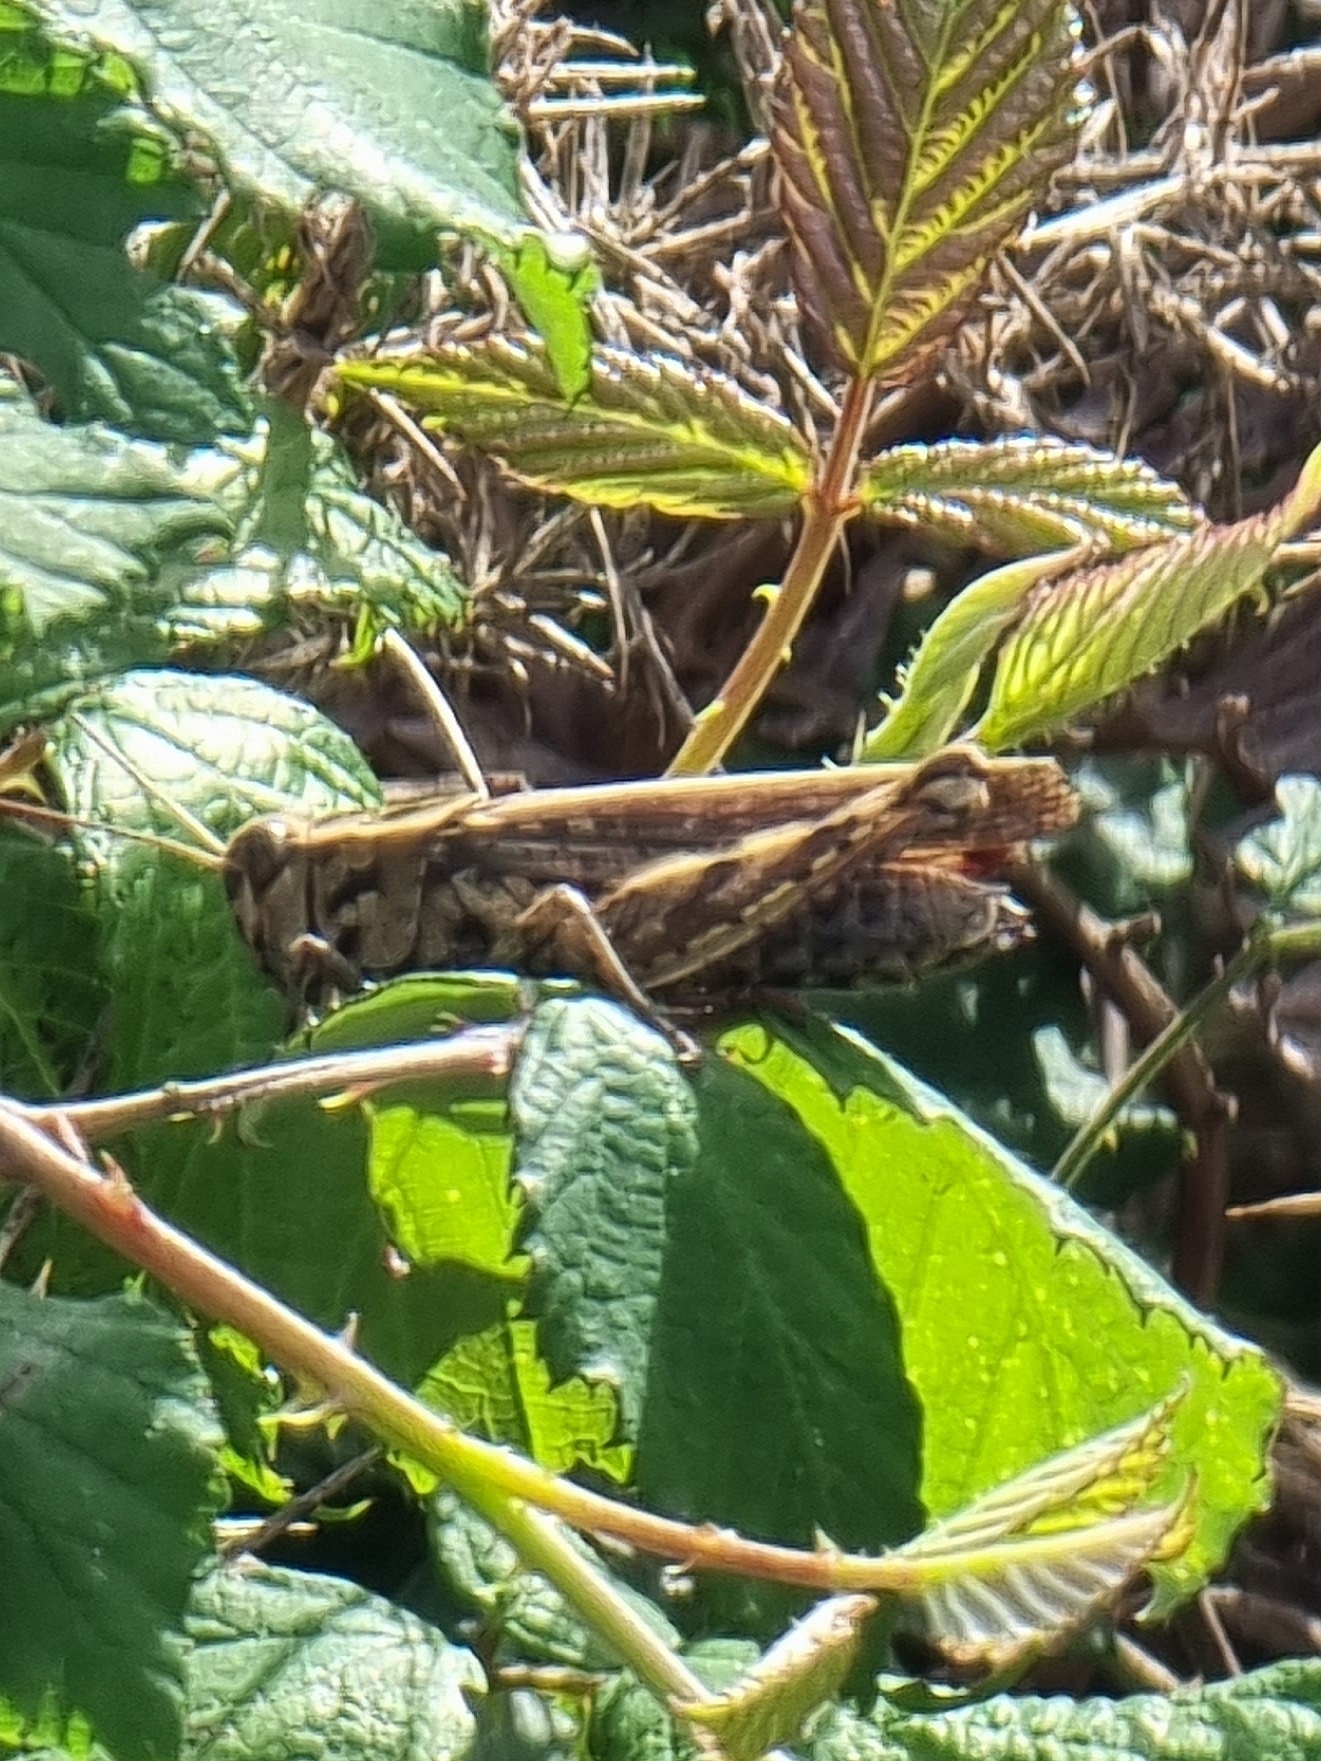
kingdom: Animalia
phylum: Arthropoda
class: Insecta
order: Orthoptera
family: Acrididae
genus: Calliptamus
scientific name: Calliptamus madeirae
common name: Madeira pincer grasshopper
